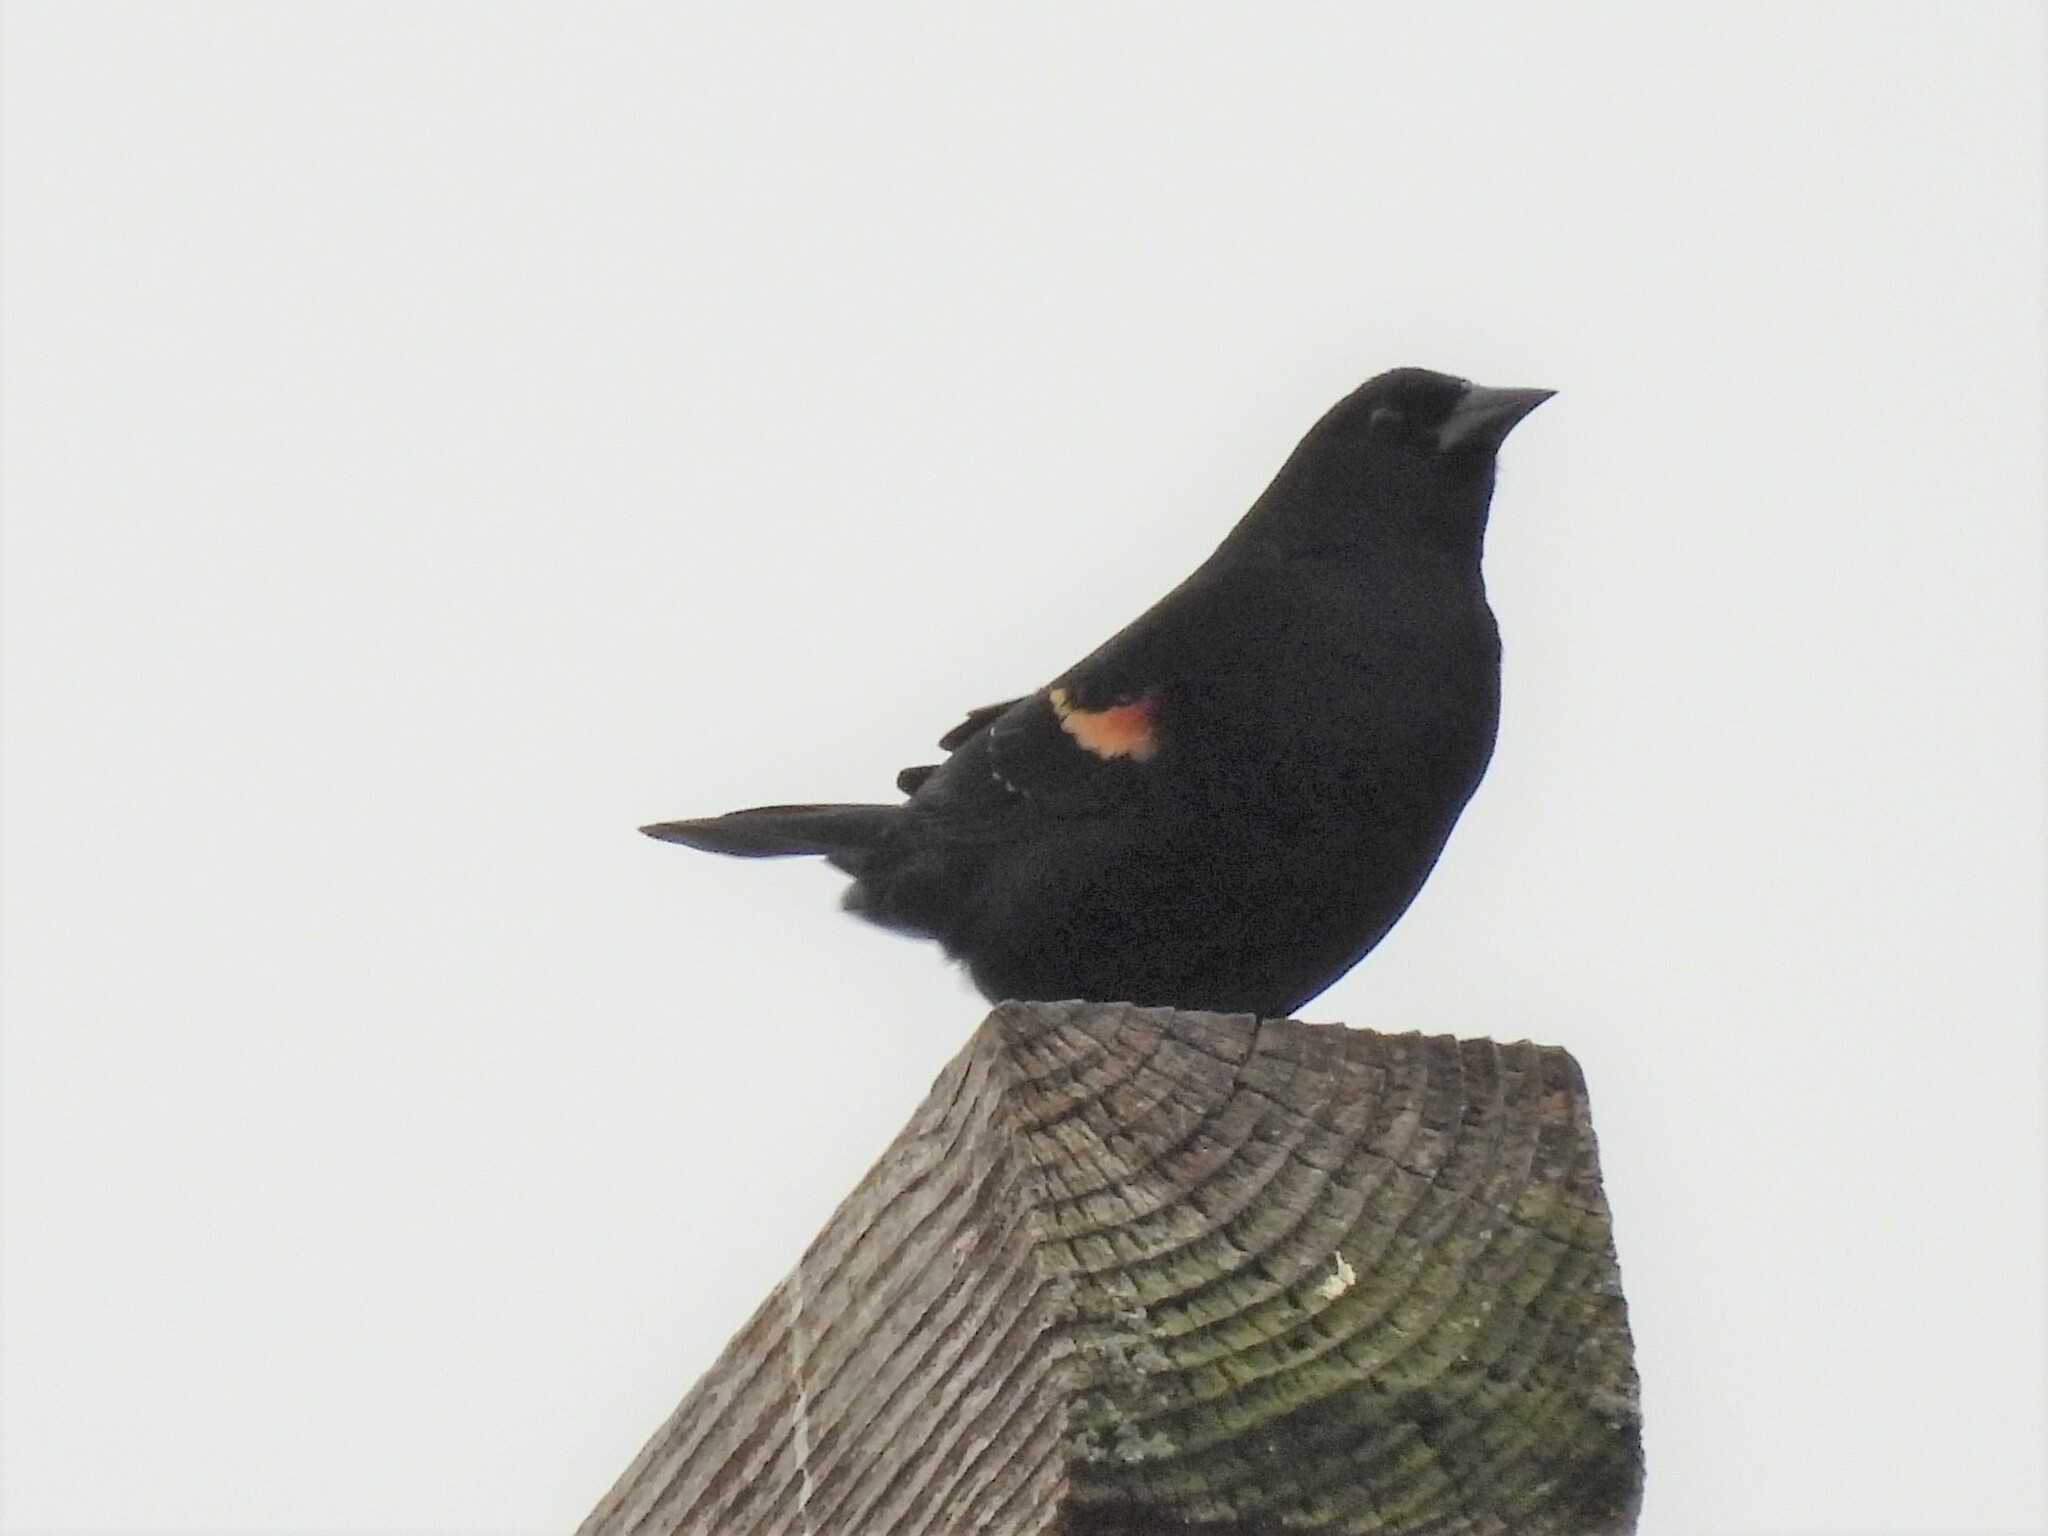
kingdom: Animalia
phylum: Chordata
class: Aves
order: Passeriformes
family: Icteridae
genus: Agelaius
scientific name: Agelaius phoeniceus
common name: Red-winged blackbird
